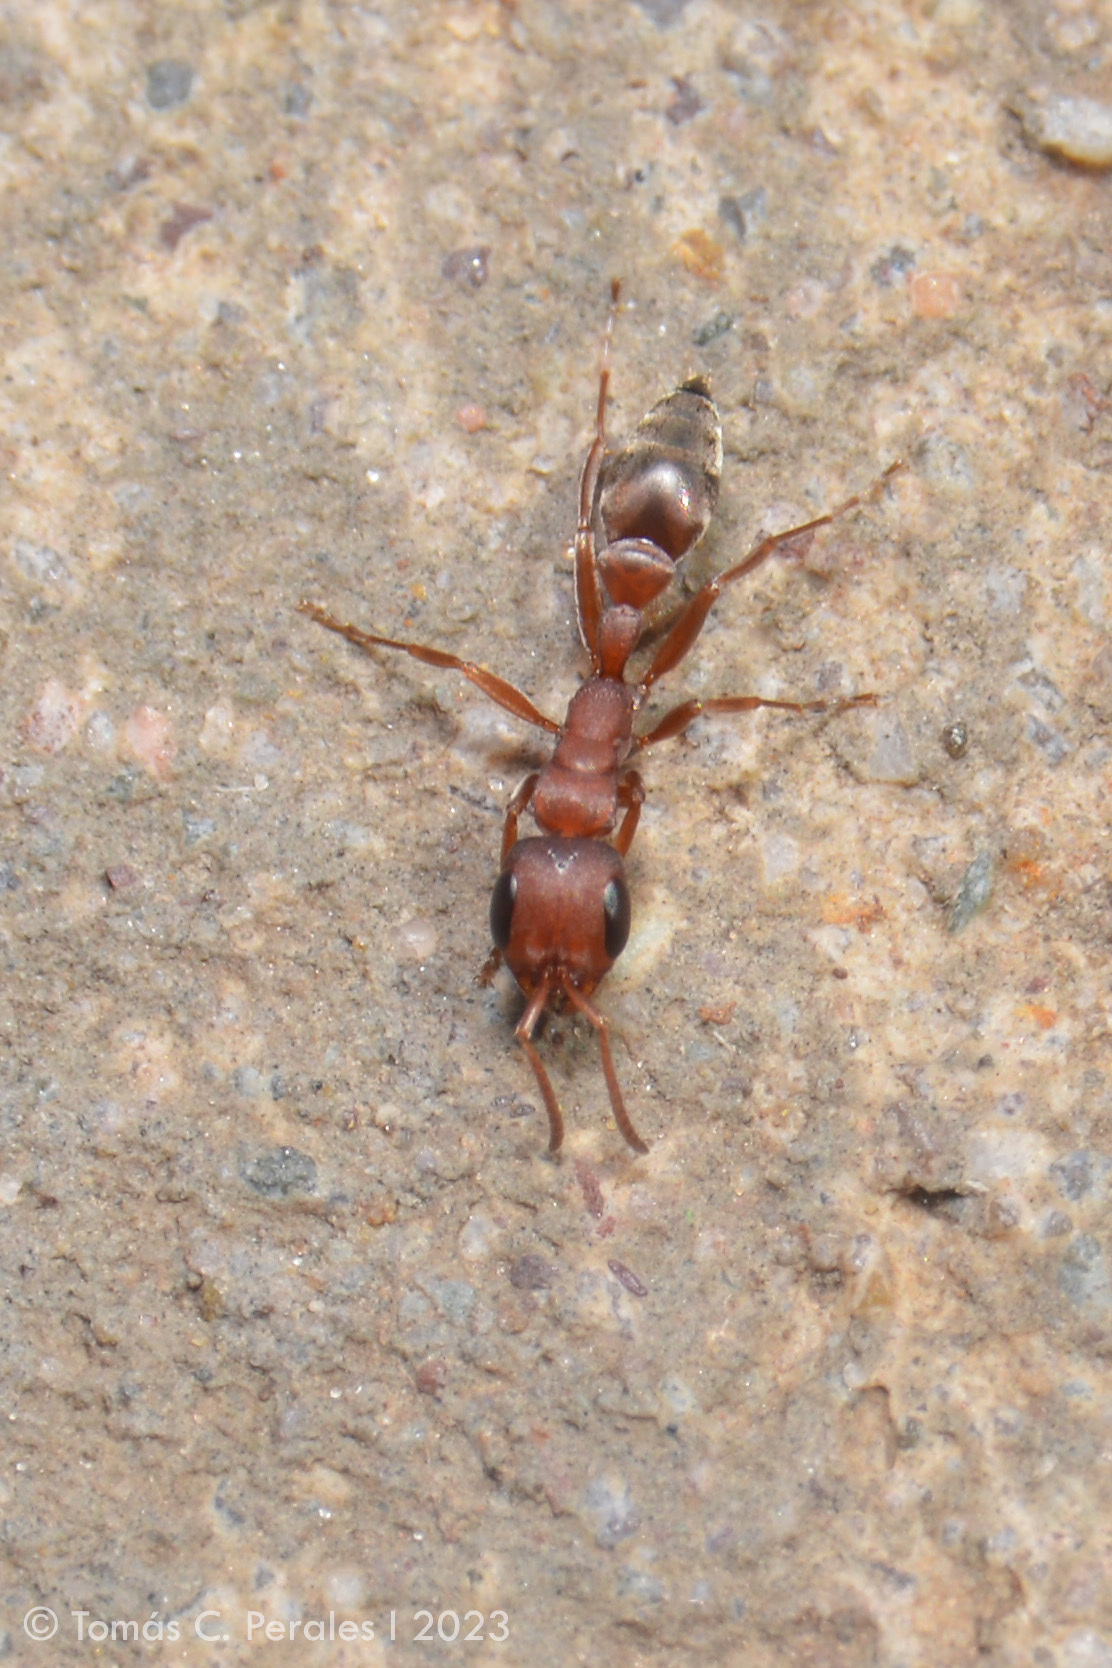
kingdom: Animalia
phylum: Arthropoda
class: Insecta
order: Hymenoptera
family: Formicidae
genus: Pseudomyrmex
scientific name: Pseudomyrmex denticollis
